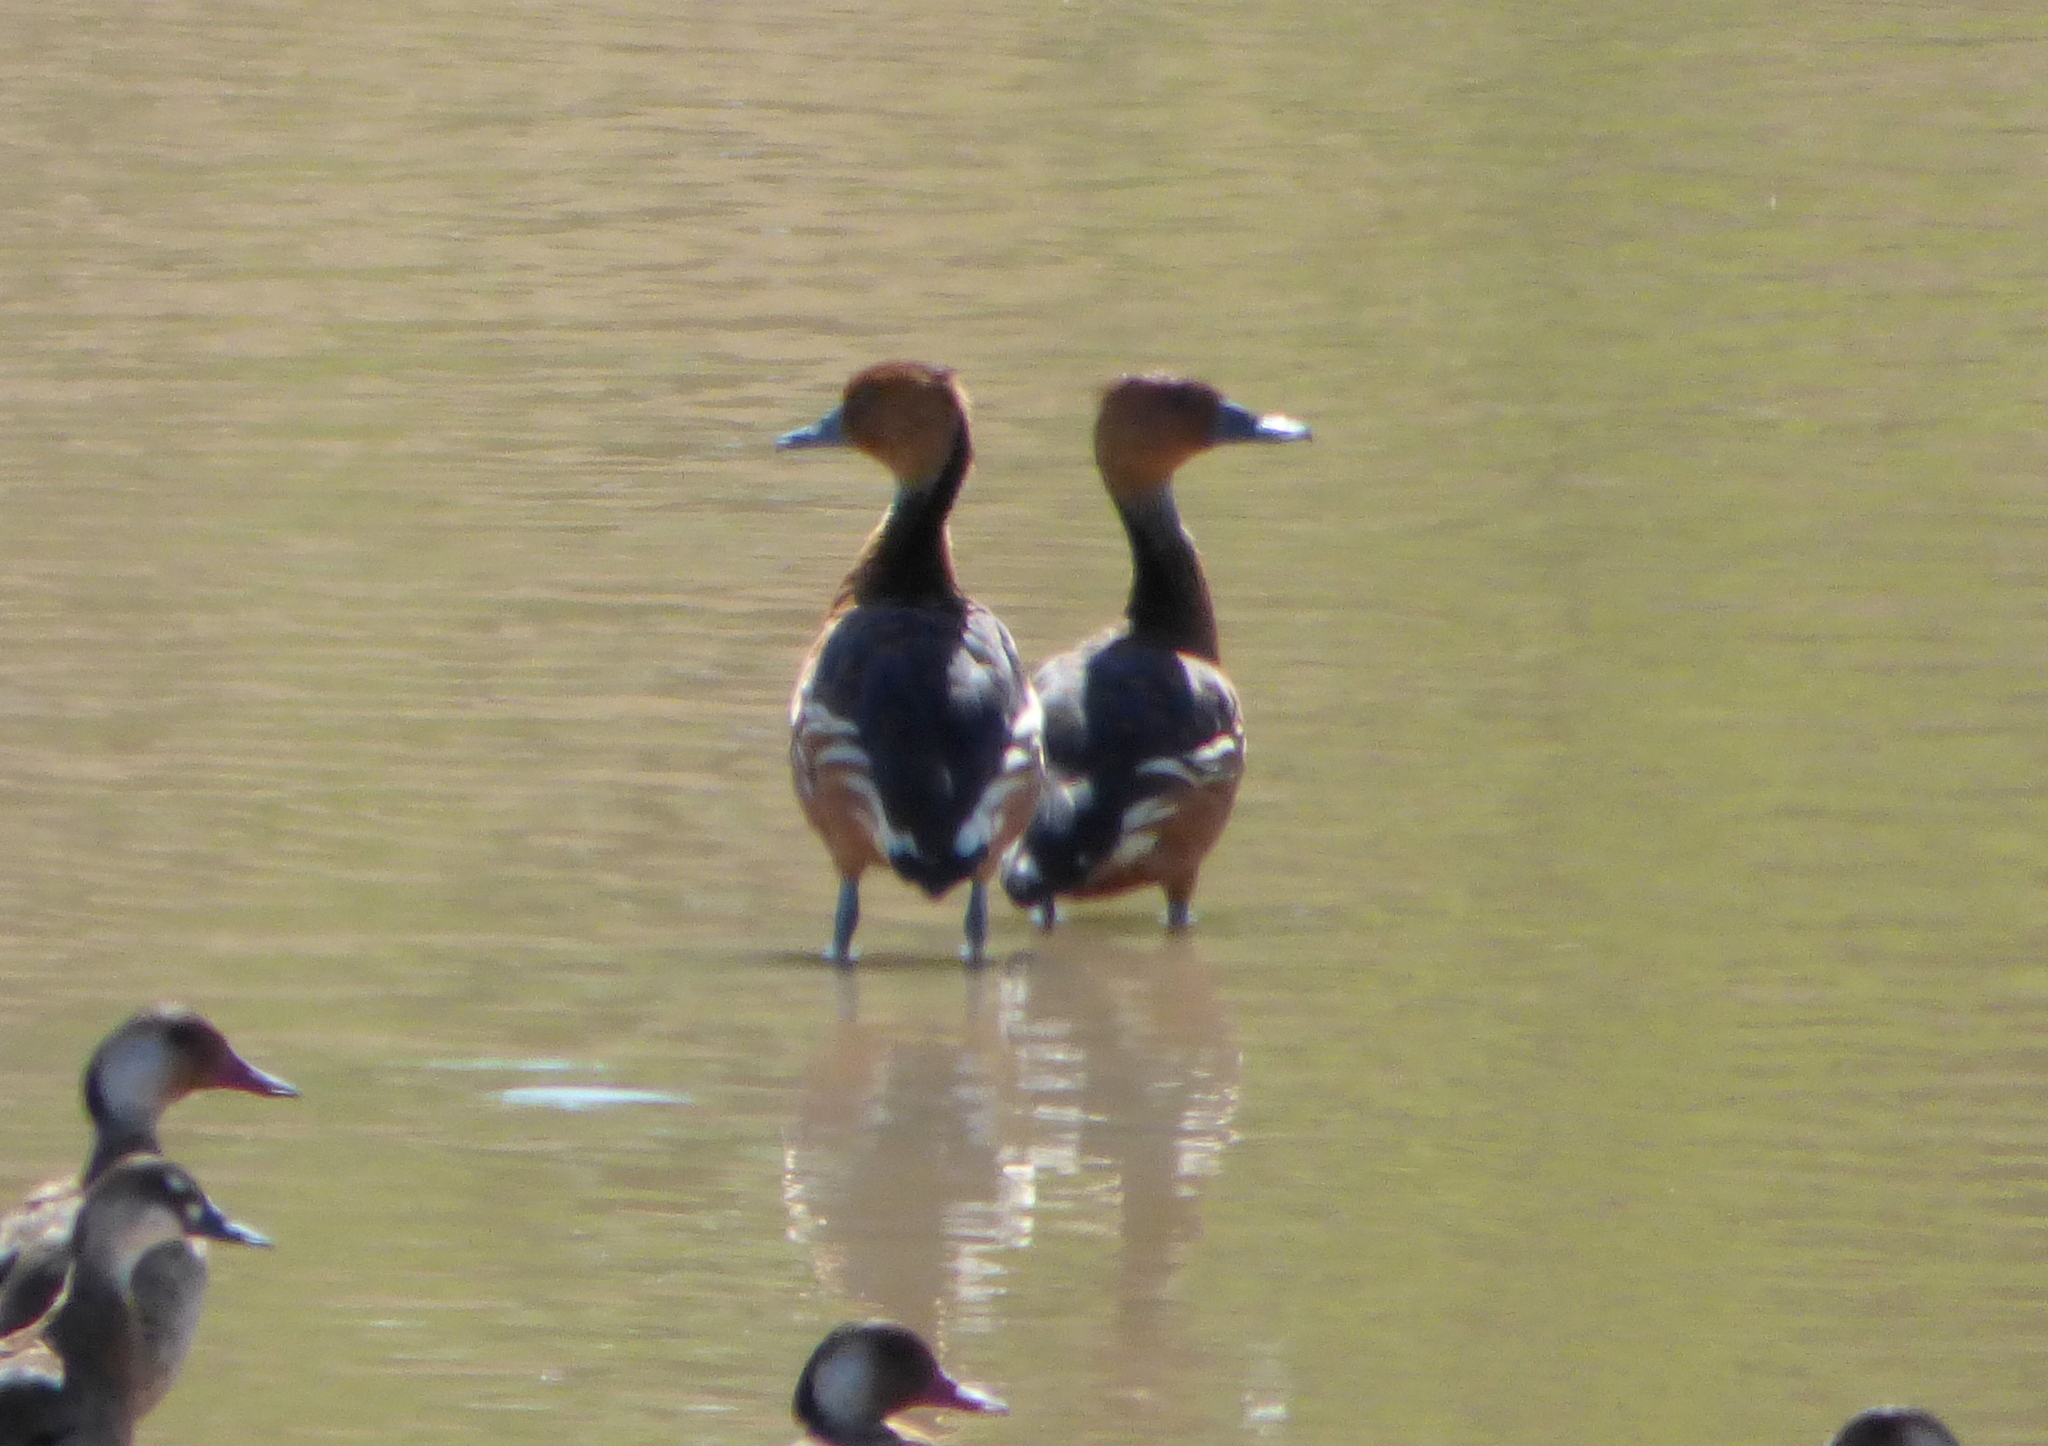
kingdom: Animalia
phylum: Chordata
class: Aves
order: Anseriformes
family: Anatidae
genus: Dendrocygna
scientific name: Dendrocygna bicolor
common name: Fulvous whistling duck
